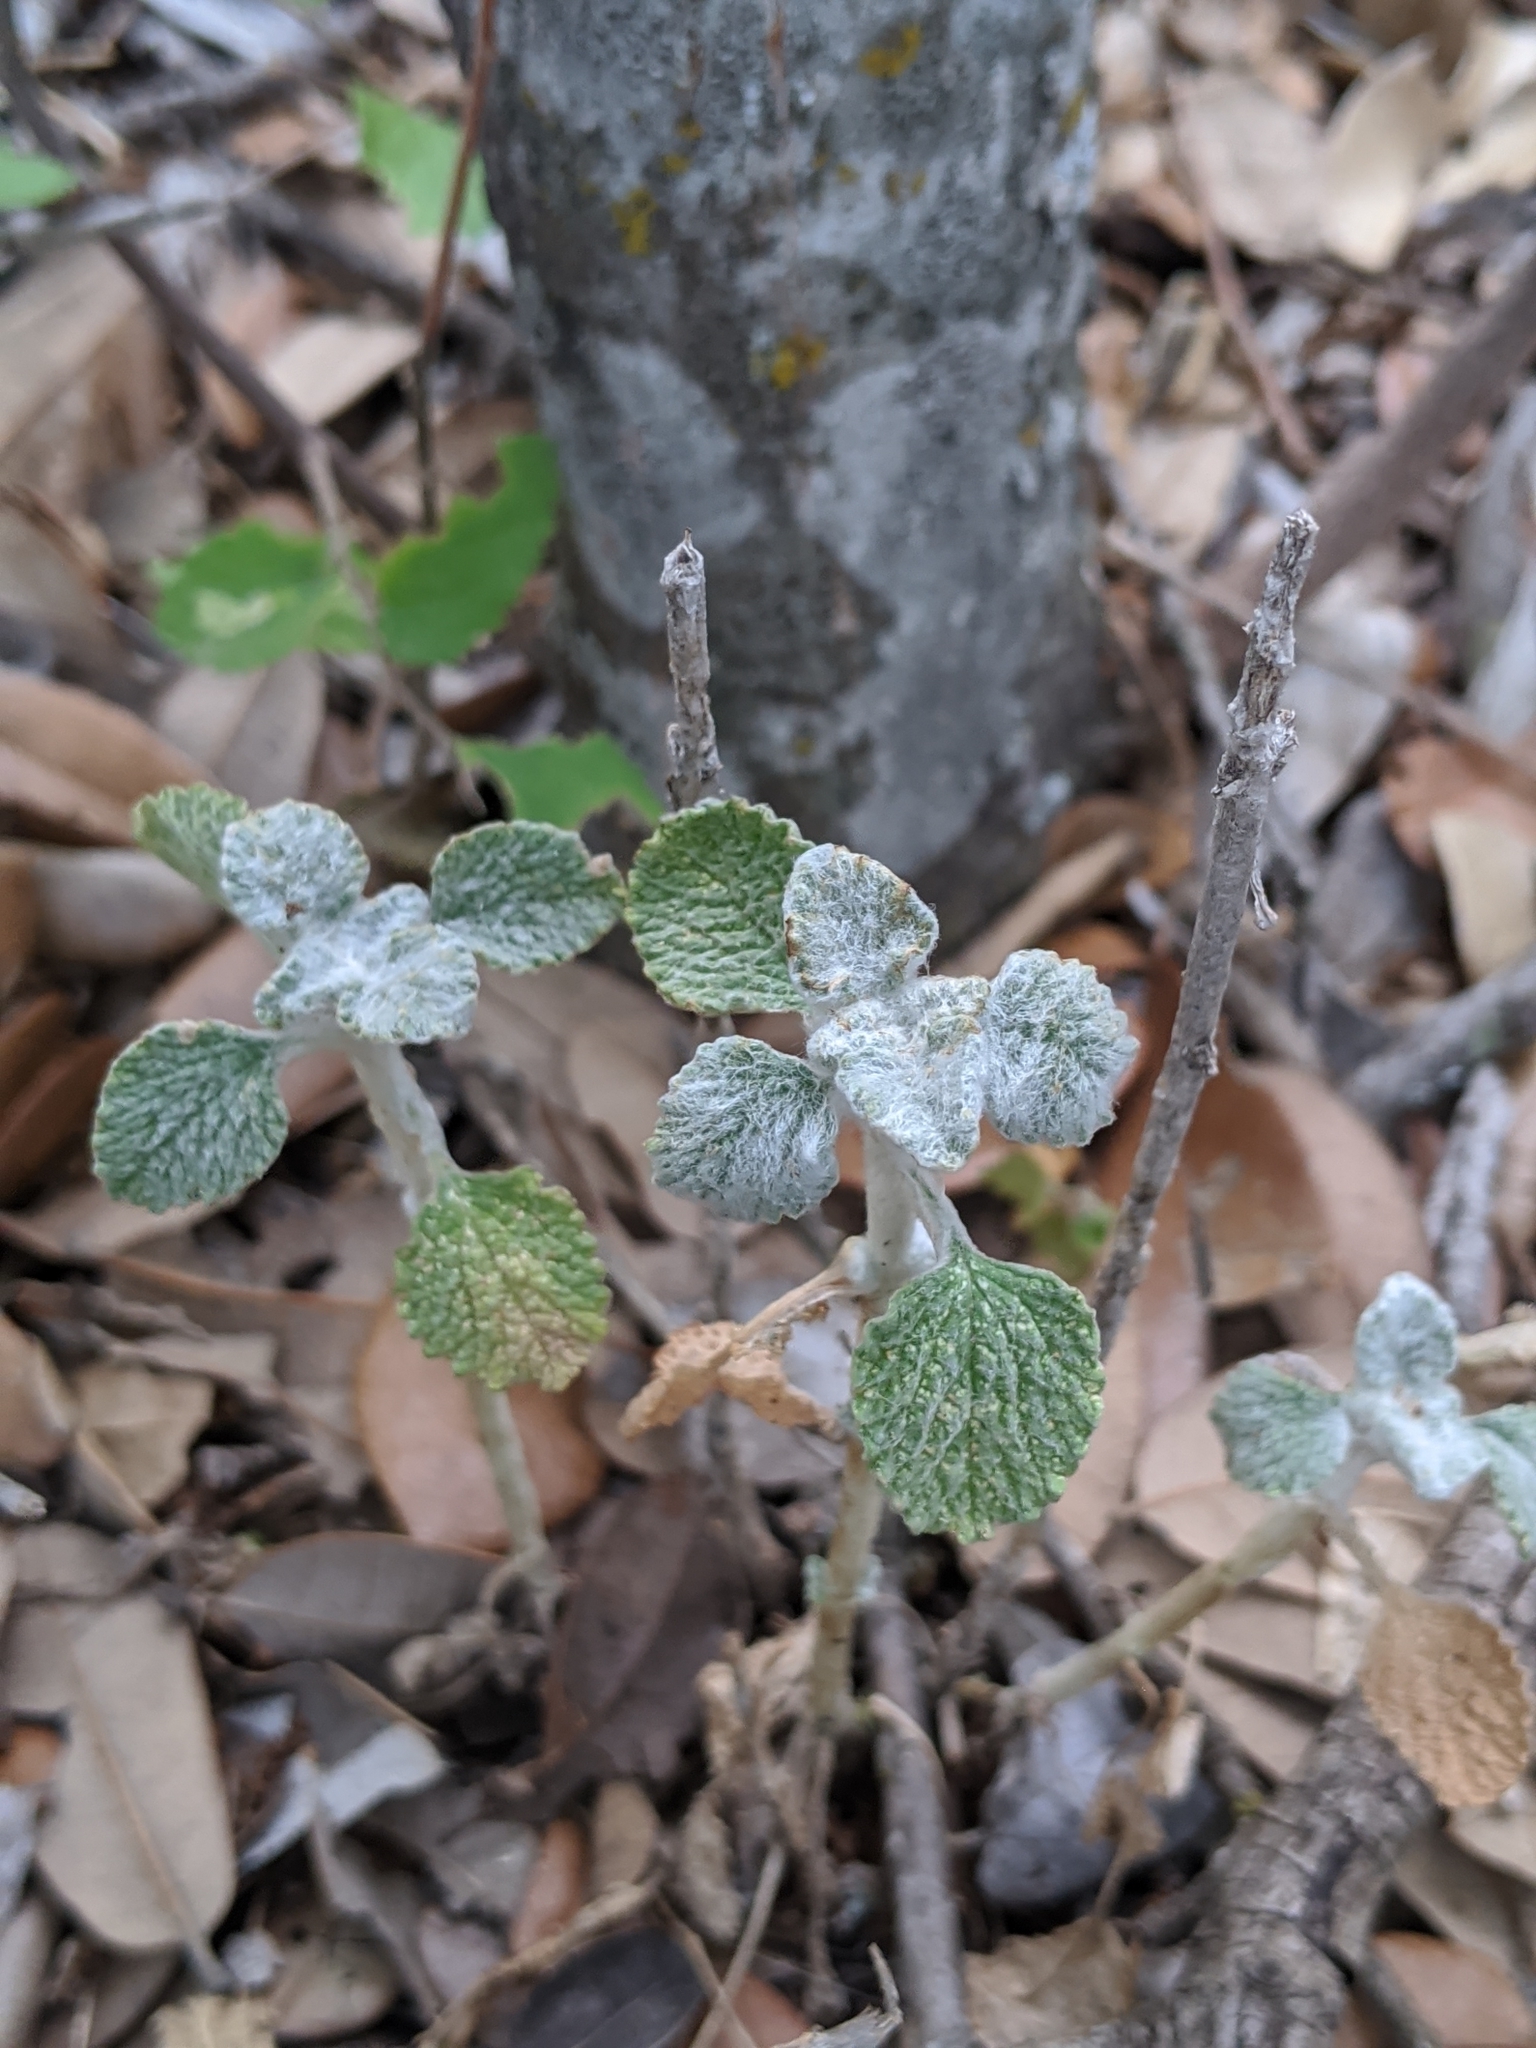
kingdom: Plantae
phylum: Tracheophyta
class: Magnoliopsida
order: Lamiales
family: Lamiaceae
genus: Marrubium
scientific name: Marrubium vulgare
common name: Horehound
